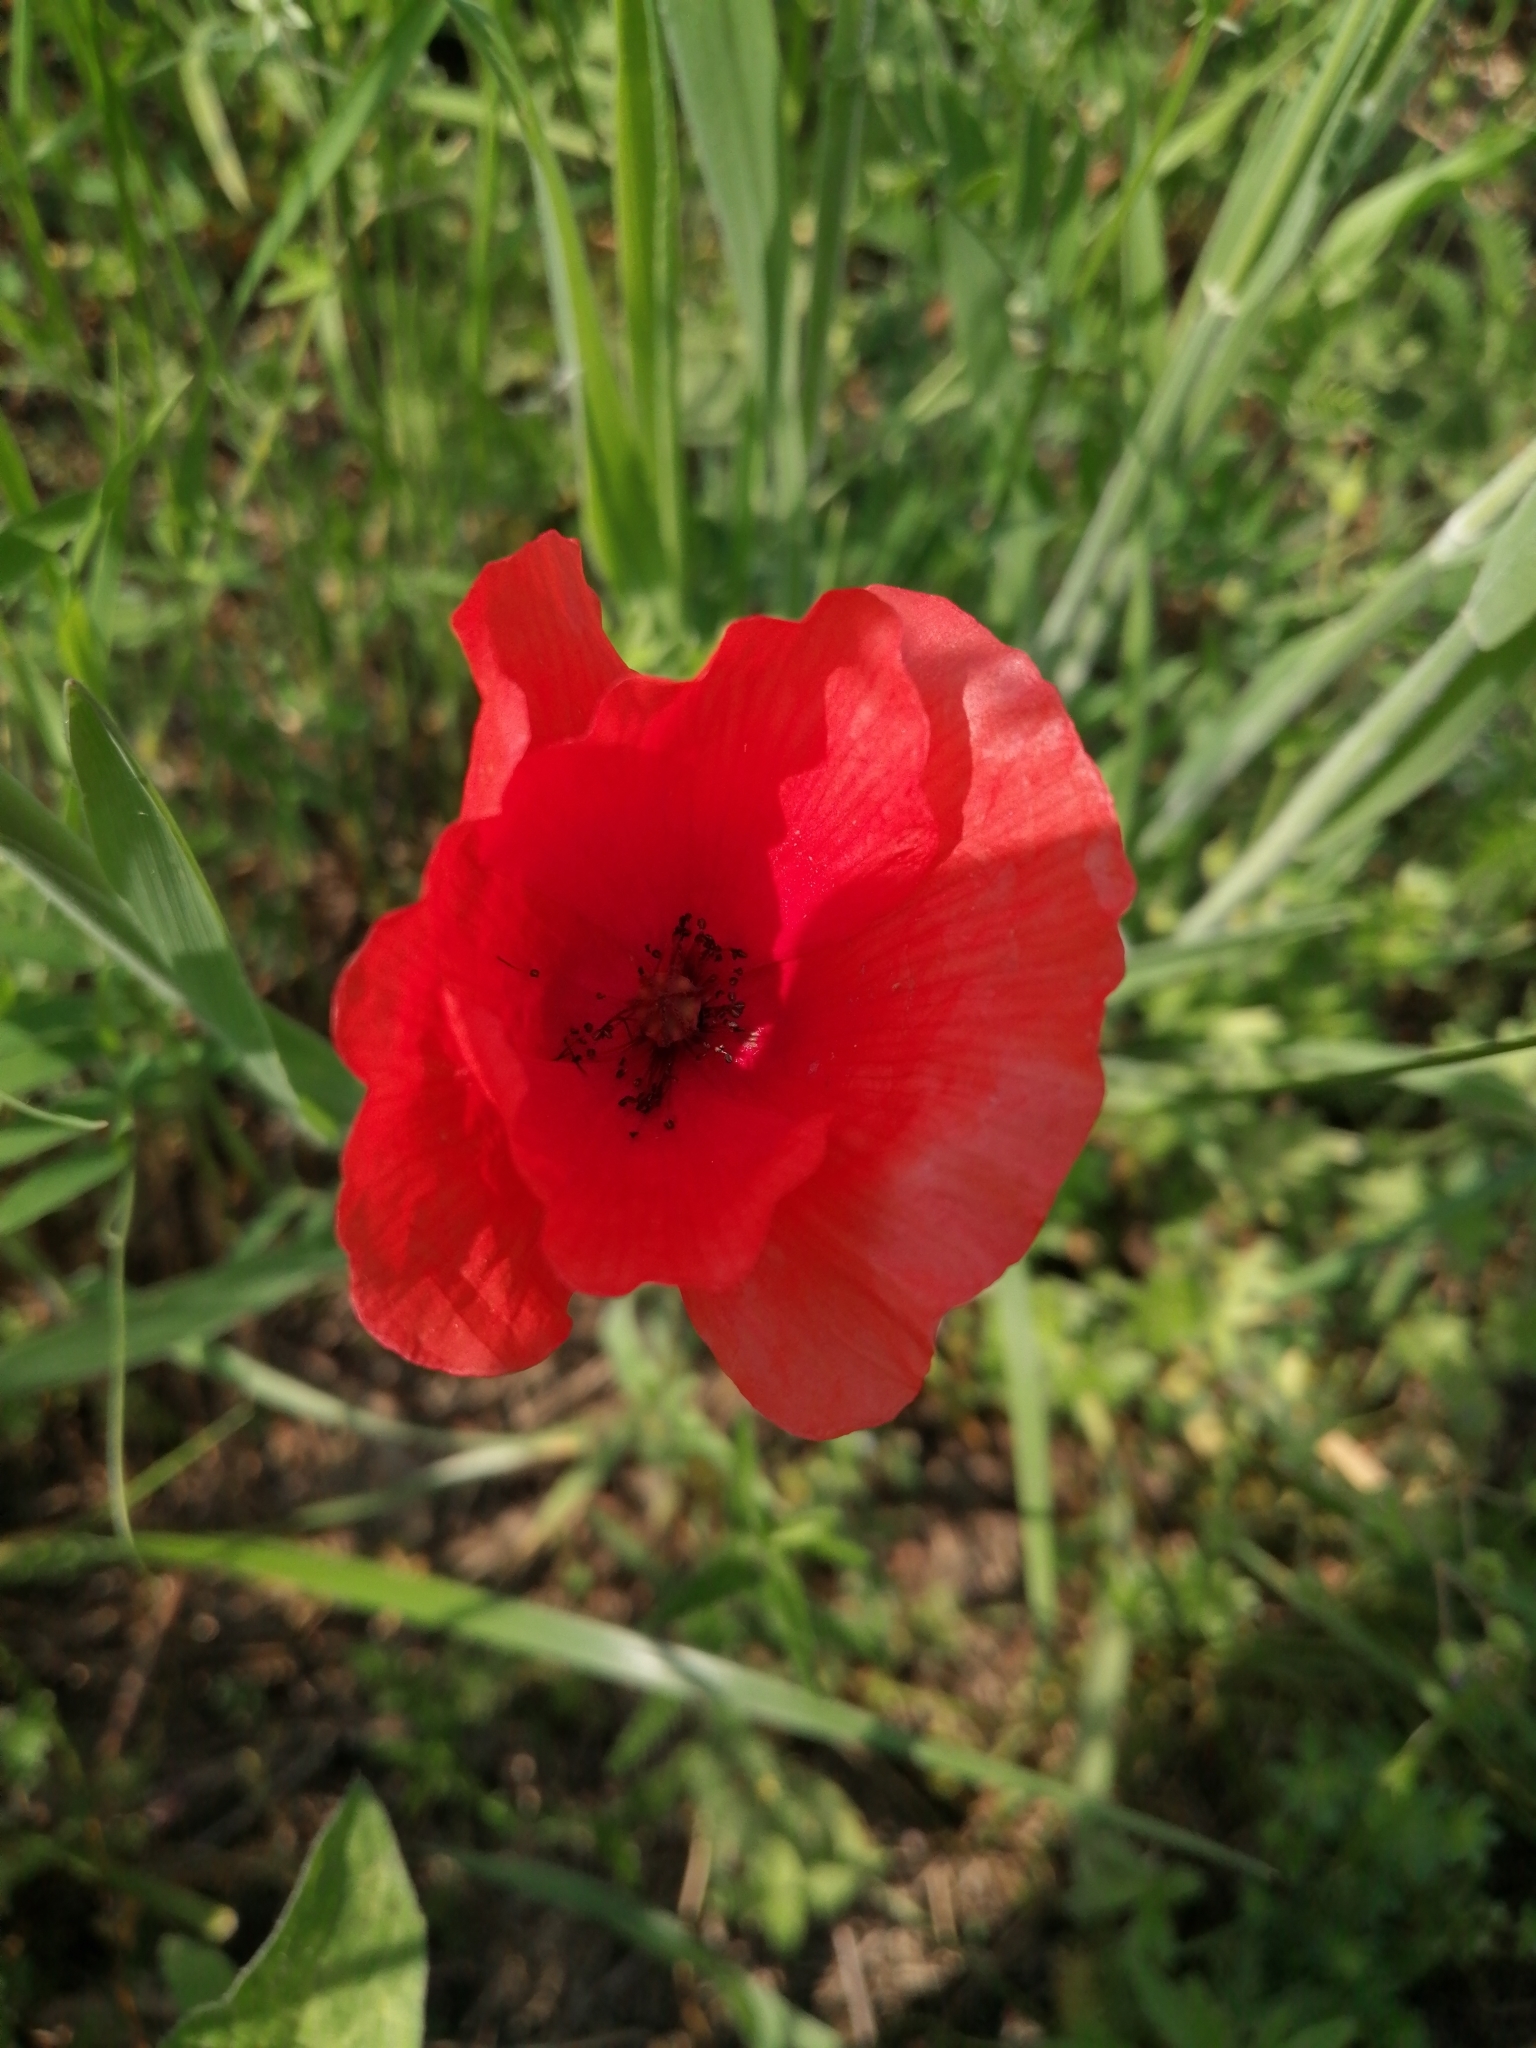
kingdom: Plantae
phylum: Tracheophyta
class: Magnoliopsida
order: Ranunculales
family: Papaveraceae
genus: Papaver
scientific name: Papaver rhoeas
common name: Corn poppy
